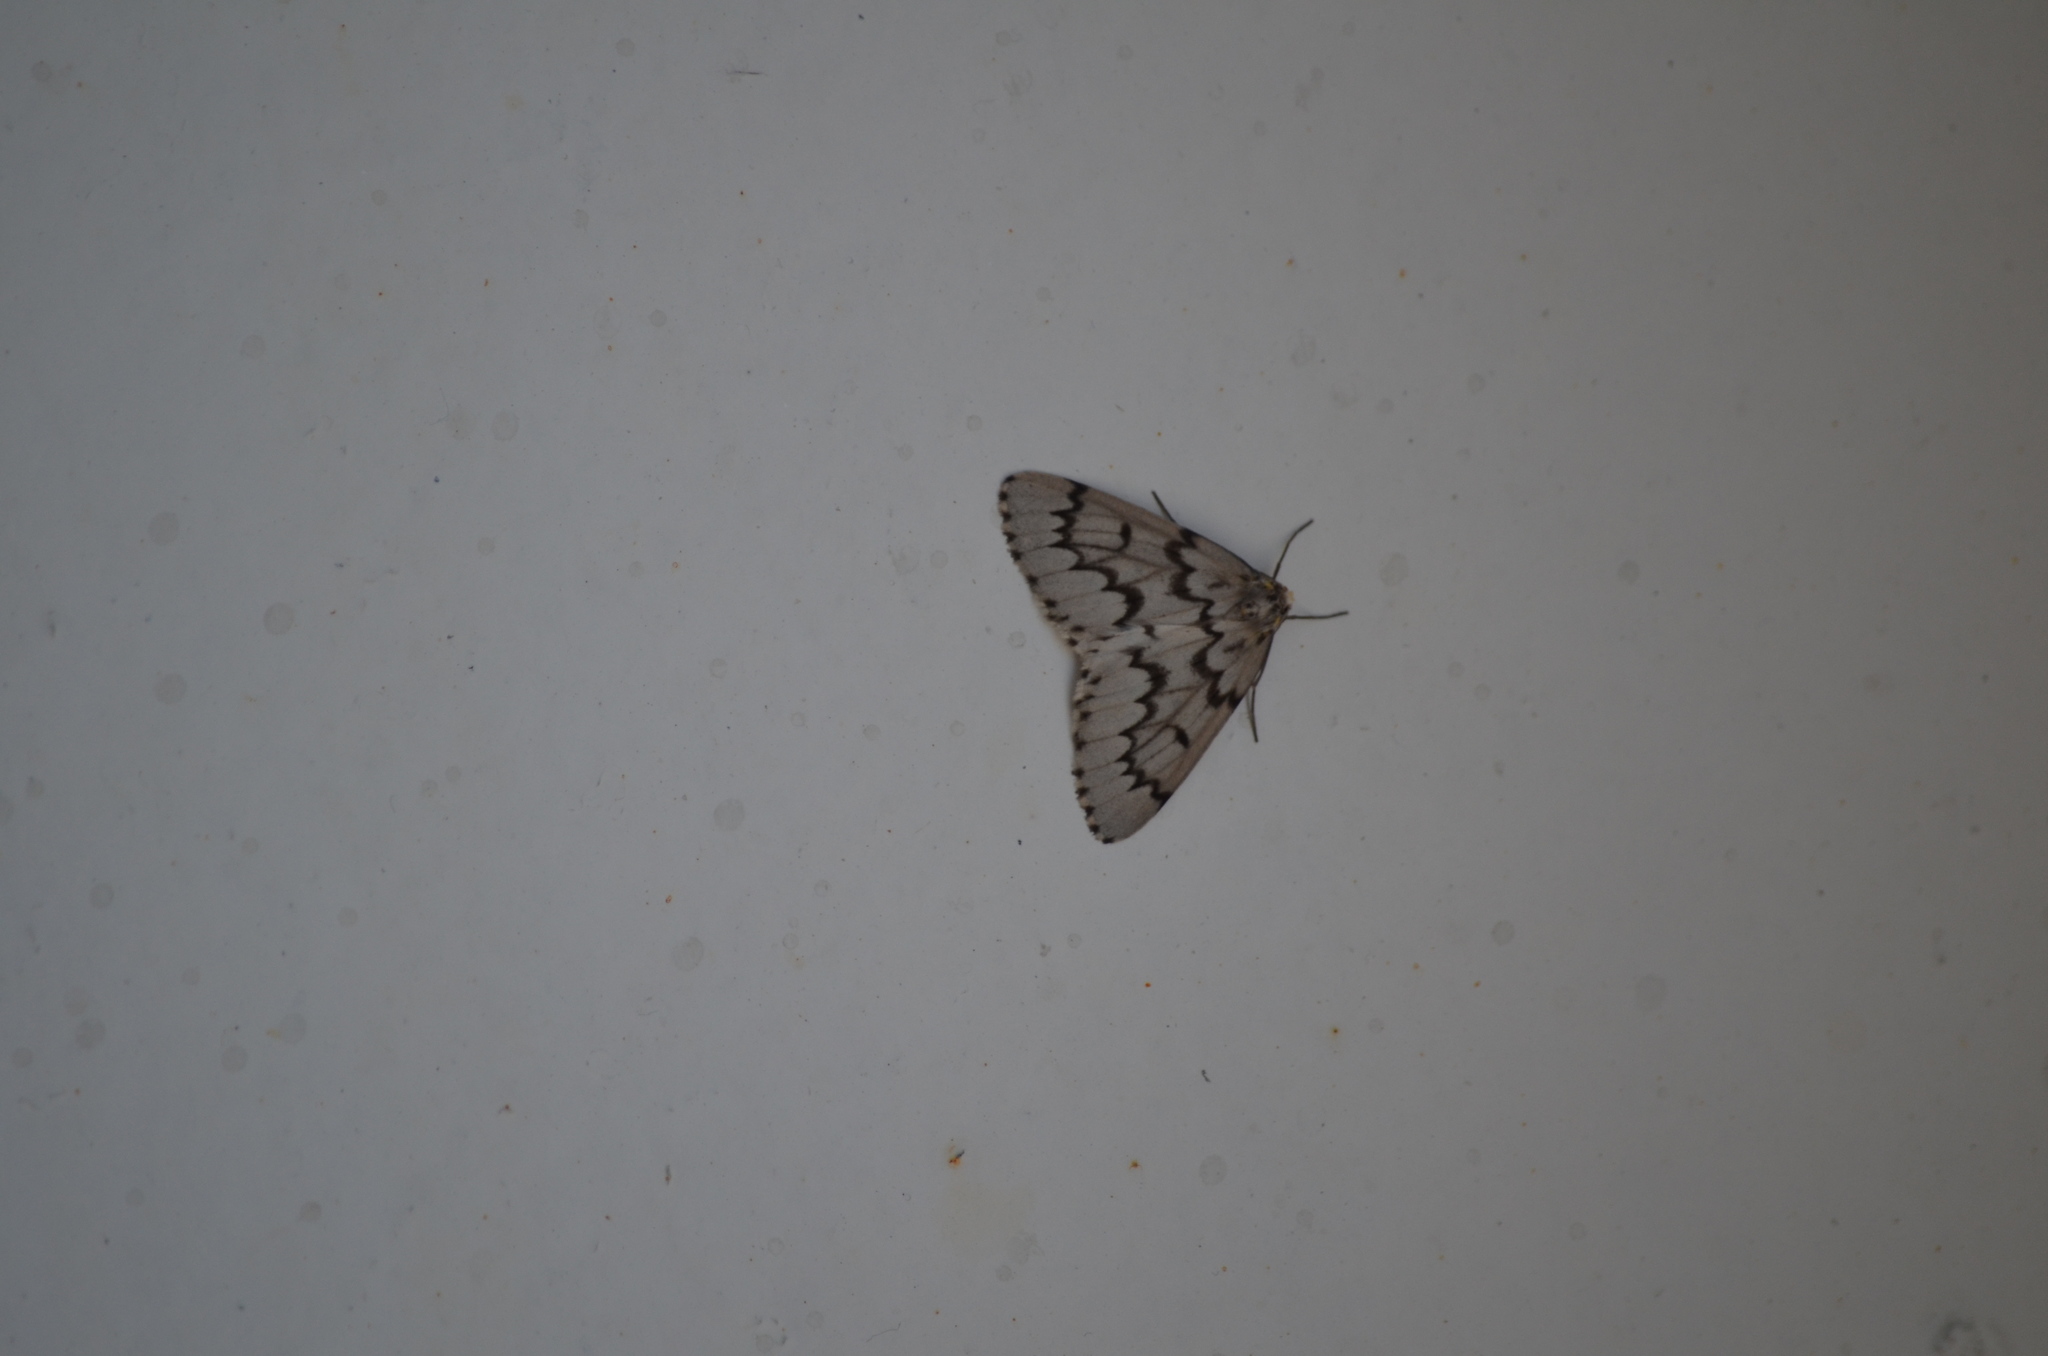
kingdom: Animalia
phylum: Arthropoda
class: Insecta
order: Lepidoptera
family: Geometridae
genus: Nepytia
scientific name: Nepytia phantasmaria
